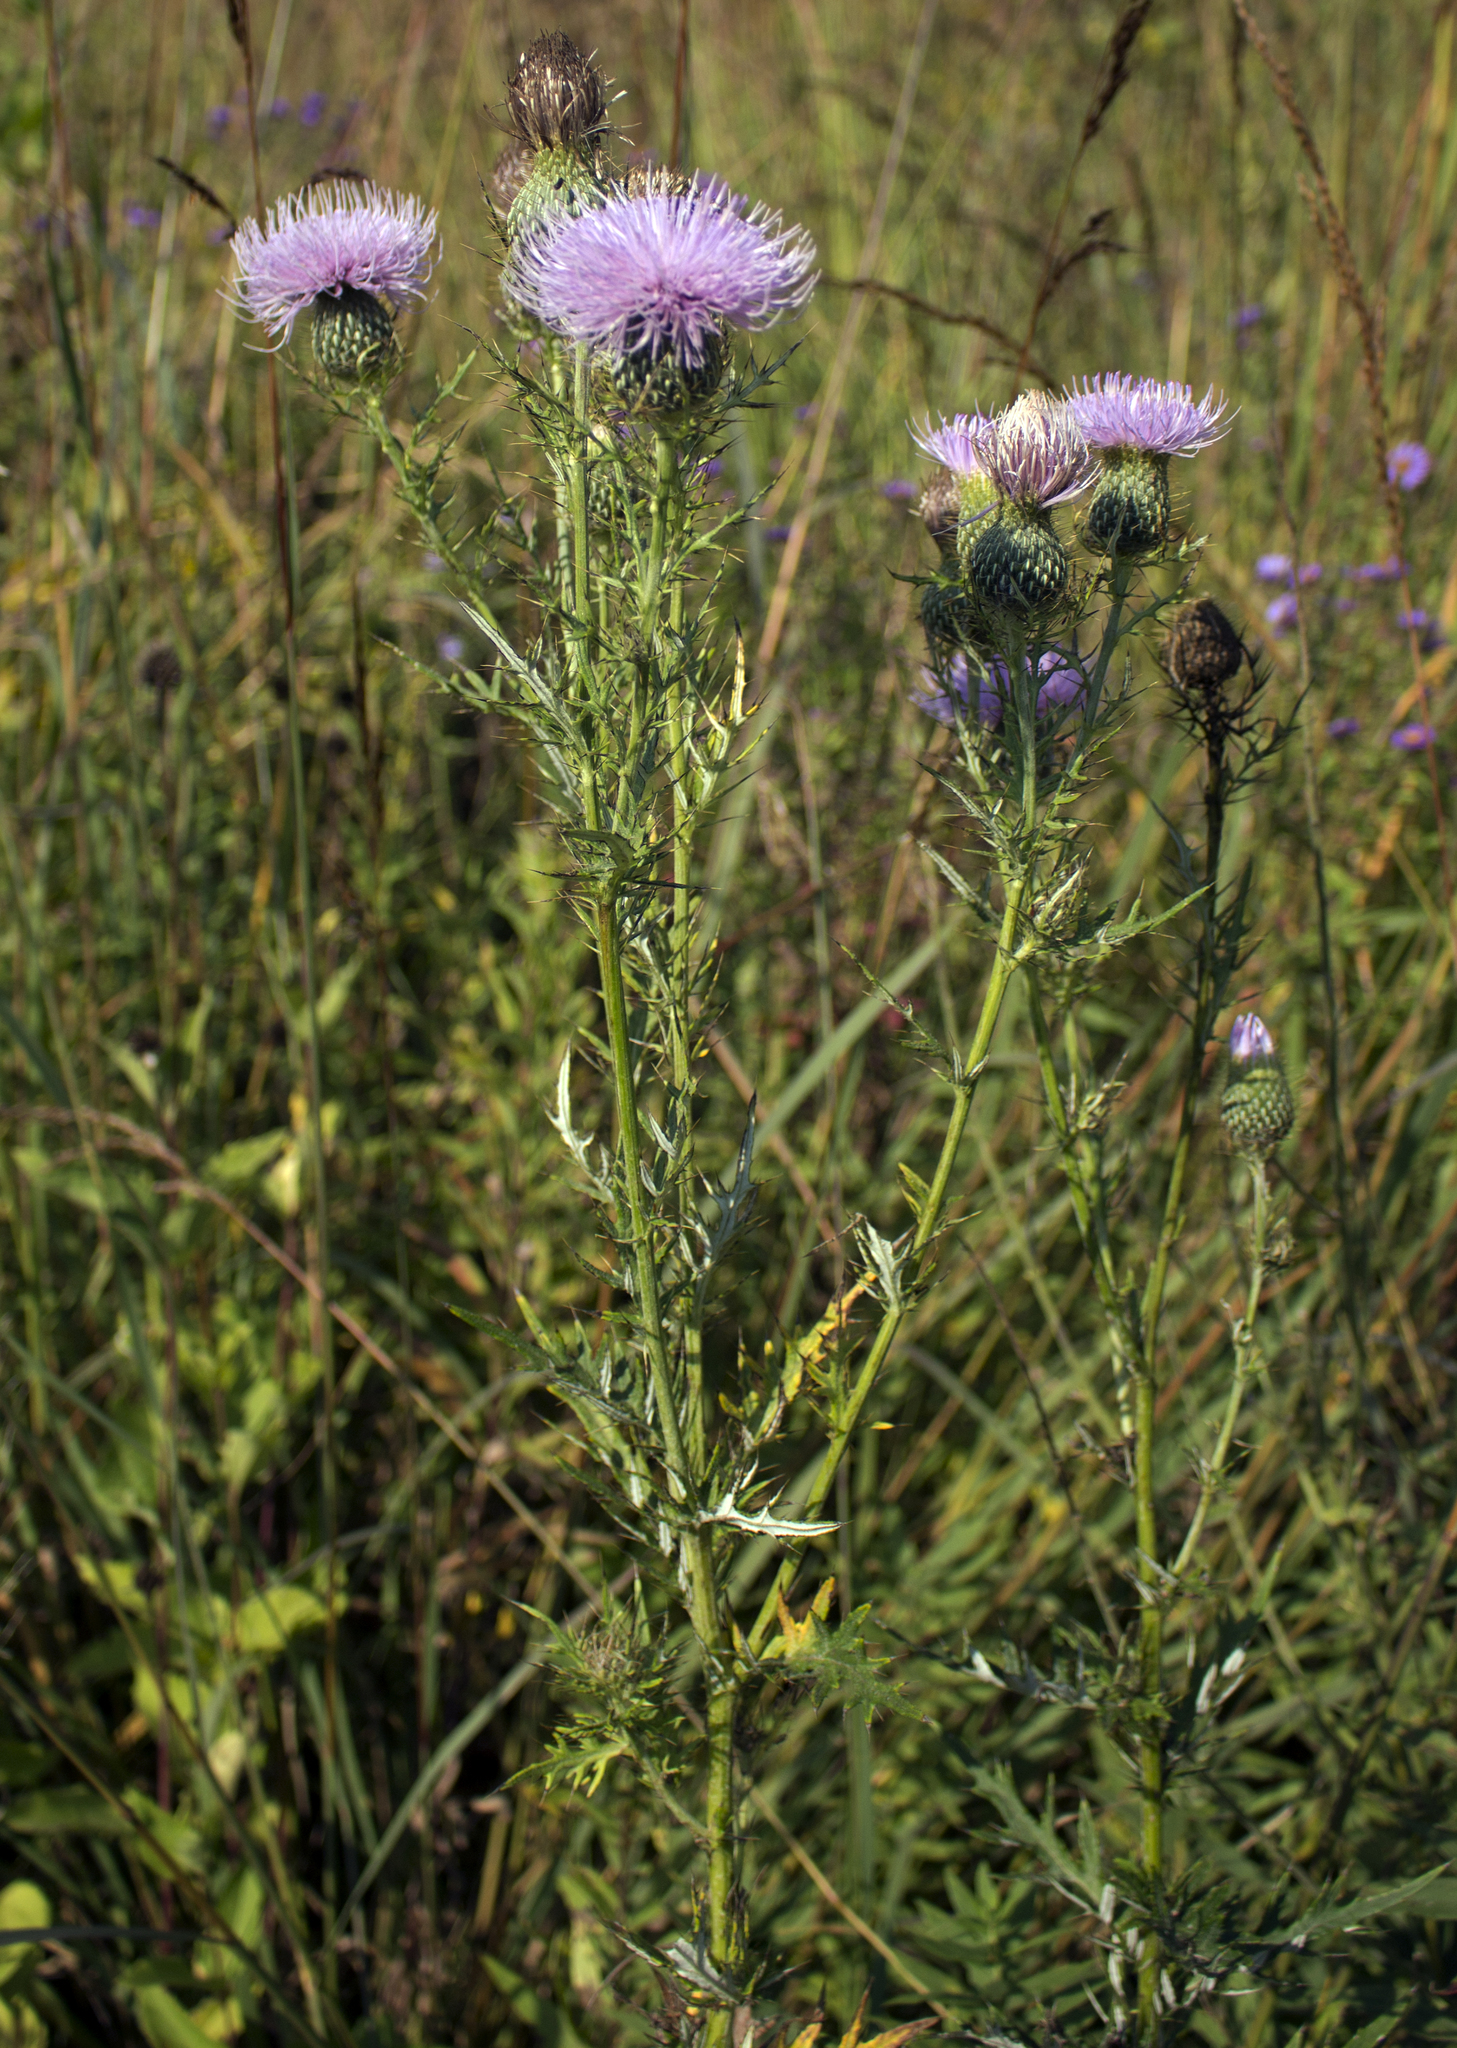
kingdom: Plantae
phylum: Tracheophyta
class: Magnoliopsida
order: Asterales
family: Asteraceae
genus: Cirsium
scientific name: Cirsium discolor
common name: Field thistle
